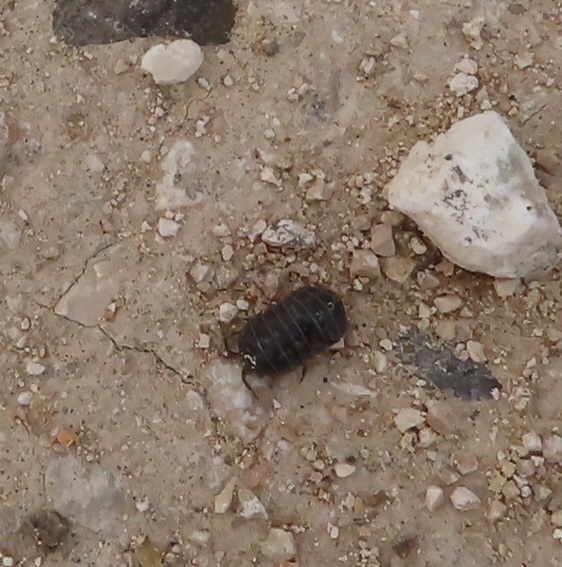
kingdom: Animalia
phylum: Arthropoda
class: Malacostraca
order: Isopoda
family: Armadillidiidae
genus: Armadillidium
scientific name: Armadillidium vulgare
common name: Common pill woodlouse
